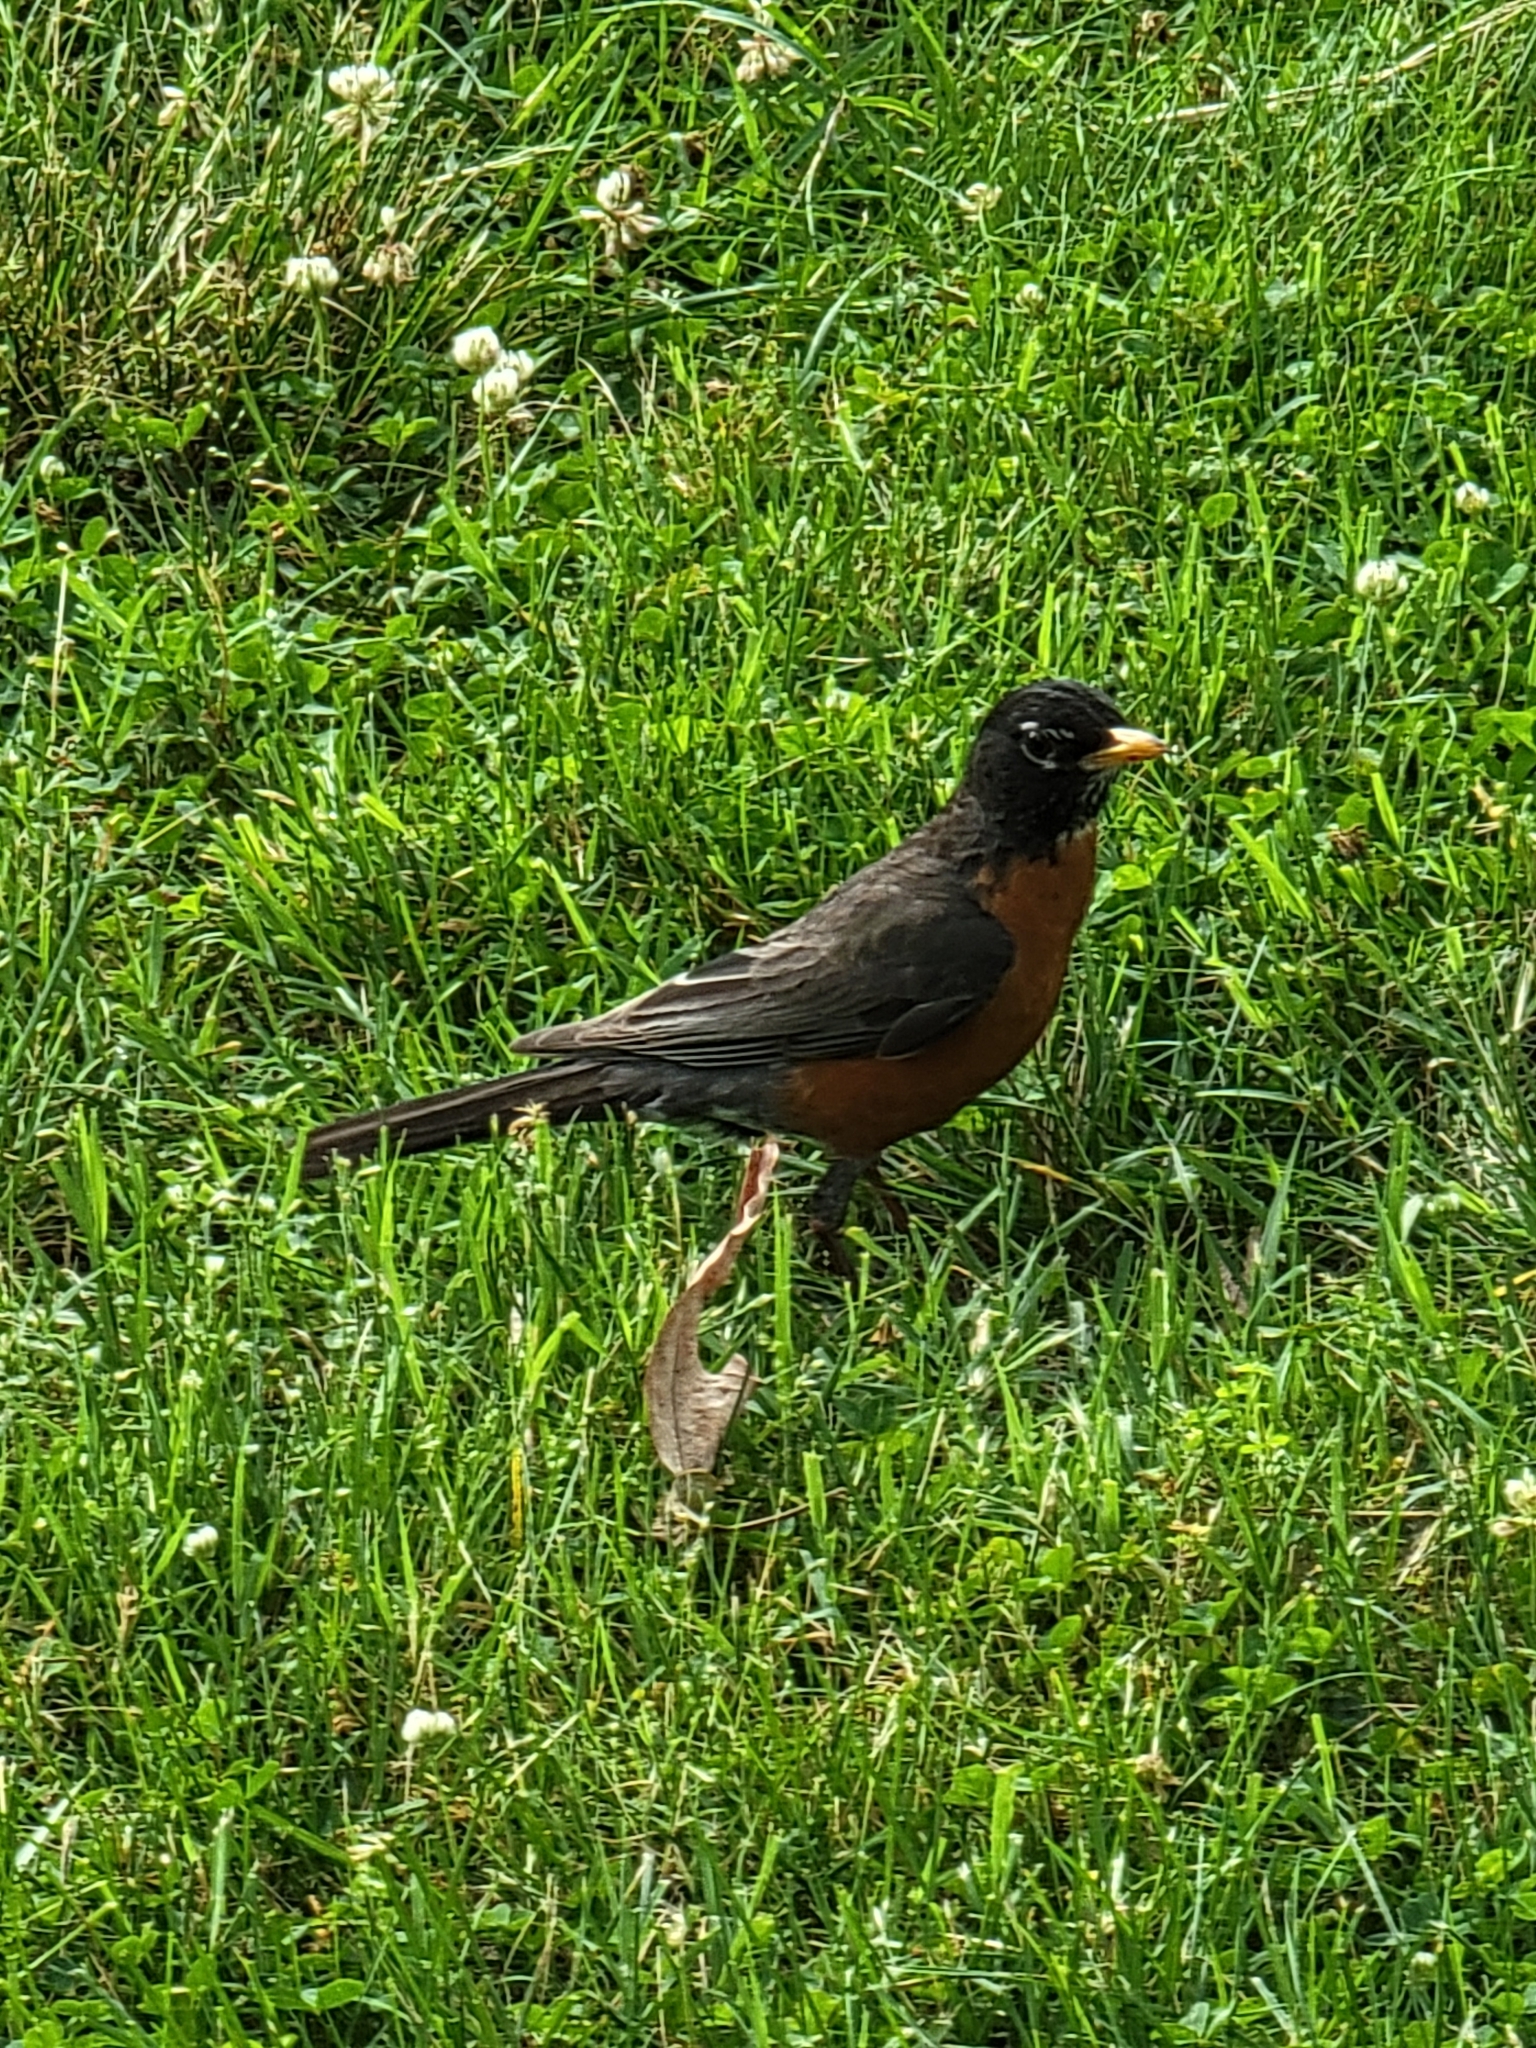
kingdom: Animalia
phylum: Chordata
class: Aves
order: Passeriformes
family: Turdidae
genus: Turdus
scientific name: Turdus migratorius
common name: American robin
